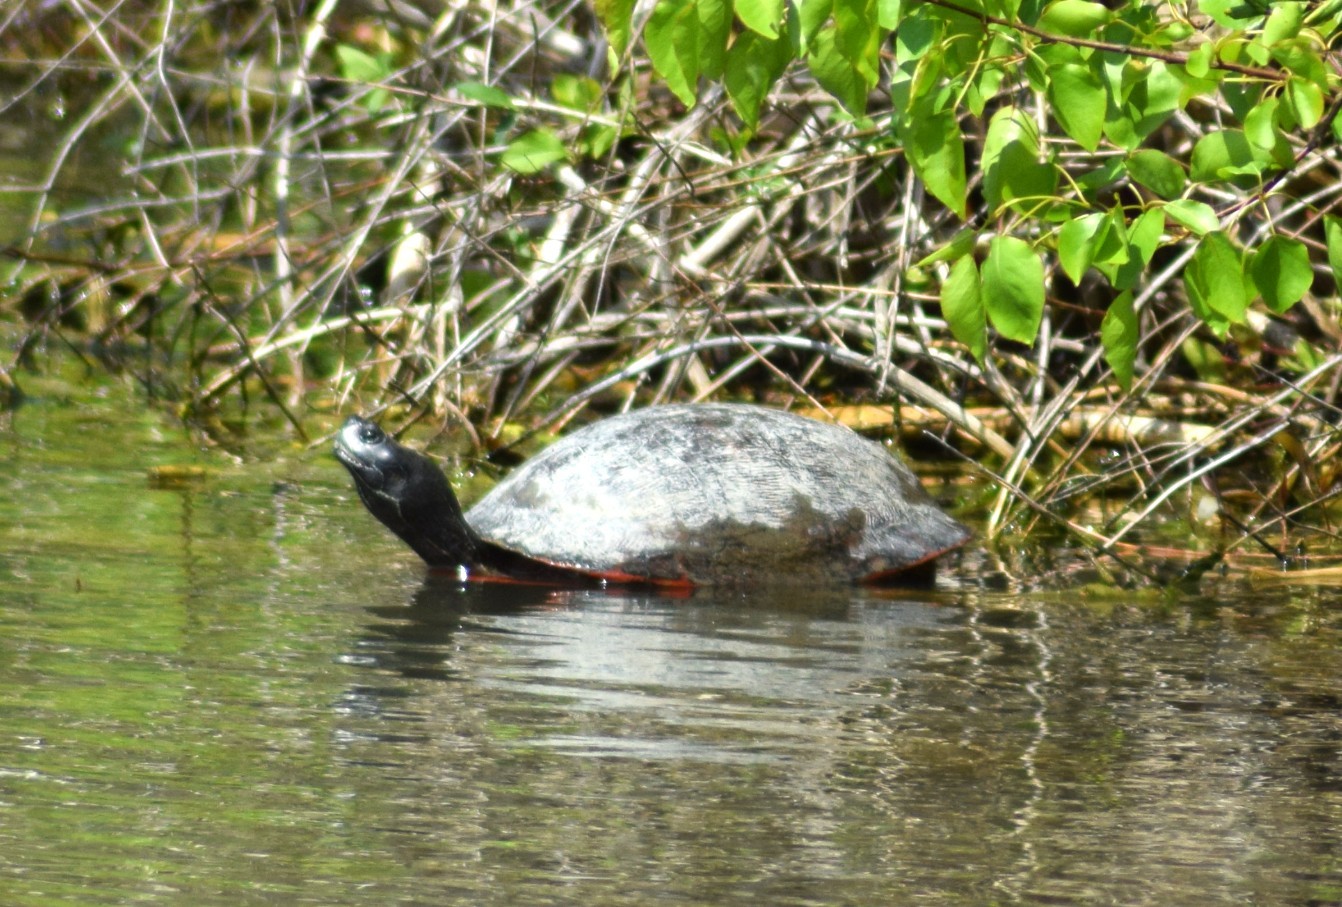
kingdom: Animalia
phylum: Chordata
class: Testudines
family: Emydidae
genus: Pseudemys
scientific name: Pseudemys rubriventris
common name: American red-bellied turtle
